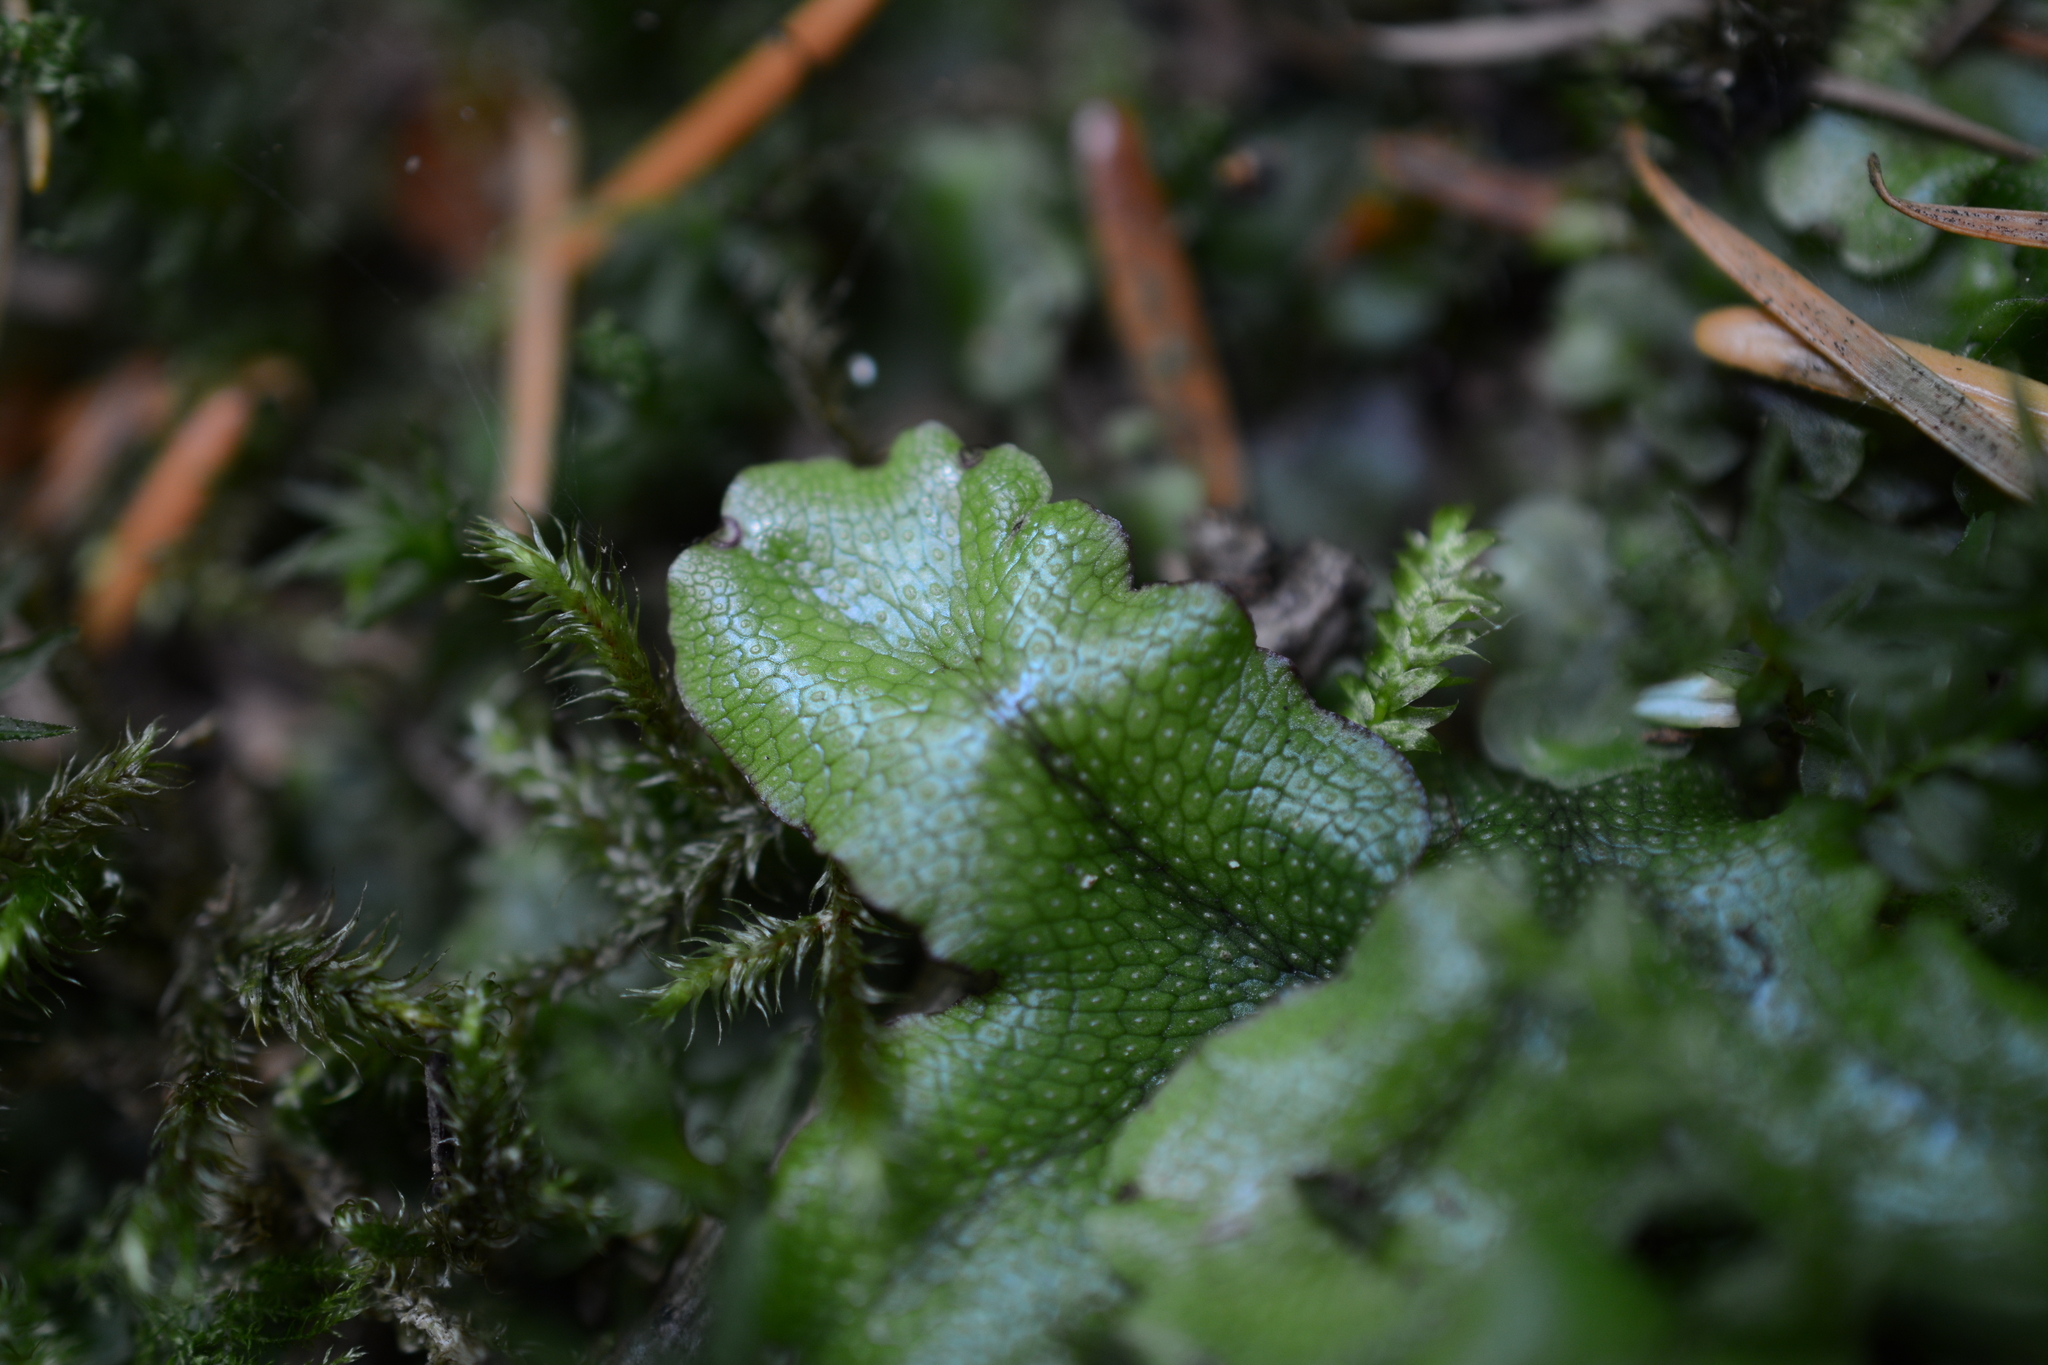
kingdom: Plantae
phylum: Marchantiophyta
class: Marchantiopsida
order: Marchantiales
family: Conocephalaceae
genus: Conocephalum
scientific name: Conocephalum salebrosum
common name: Cat-tongue liverwort
